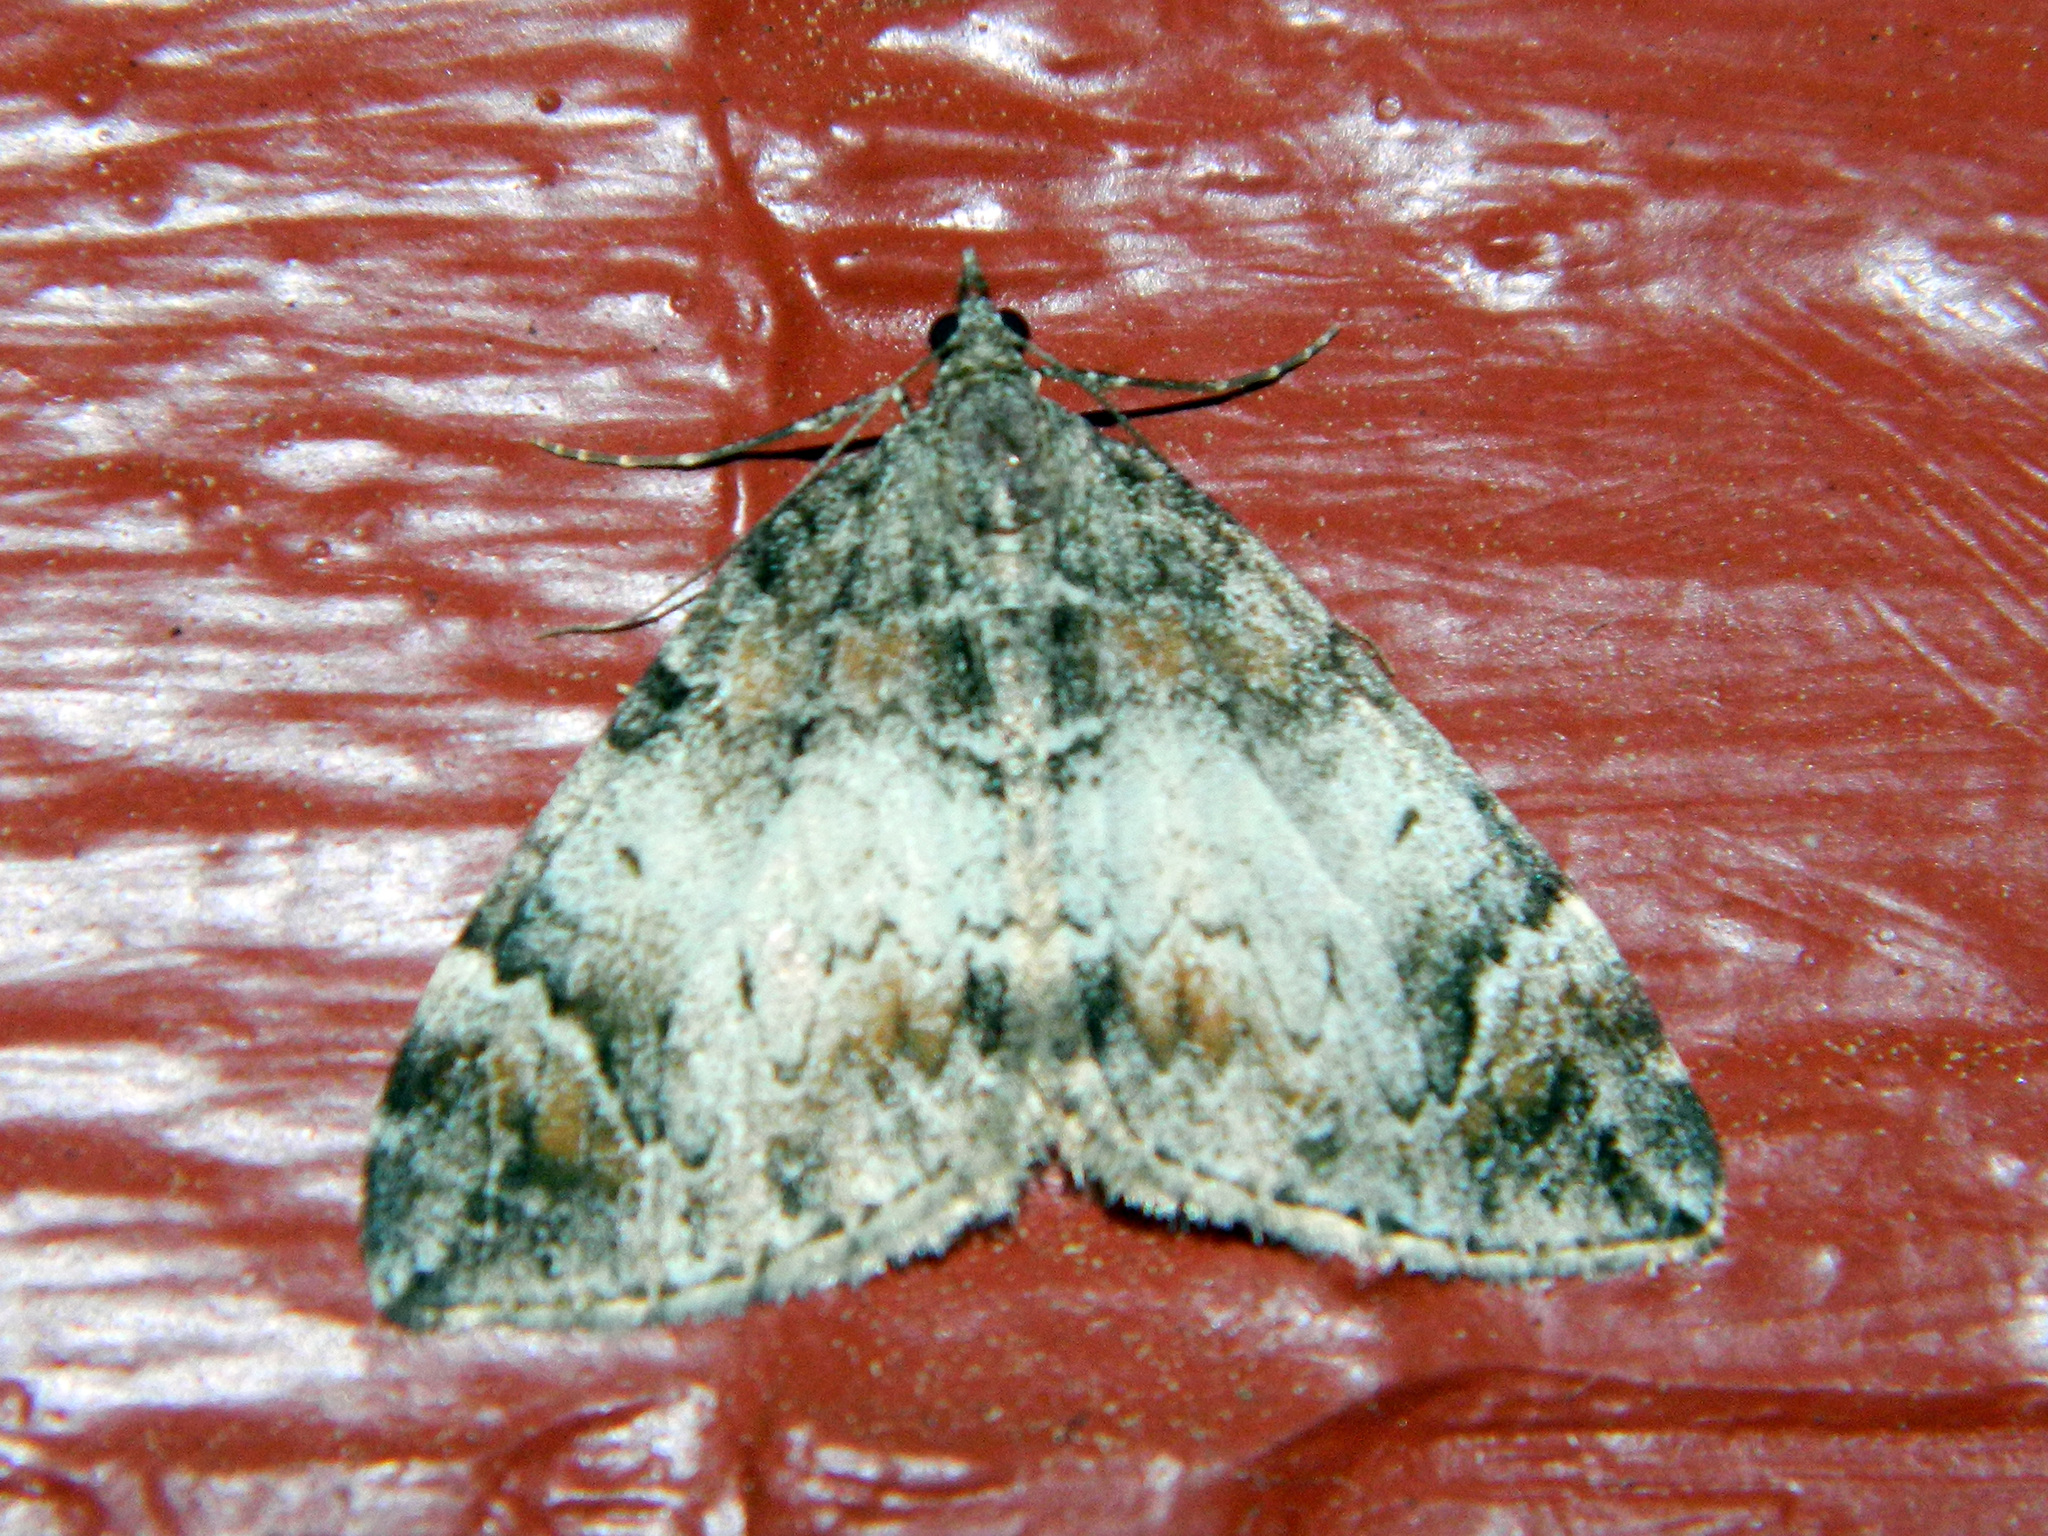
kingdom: Animalia
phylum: Arthropoda
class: Insecta
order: Lepidoptera
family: Geometridae
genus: Dysstroma
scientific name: Dysstroma citrata
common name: Dark marbled carpet
